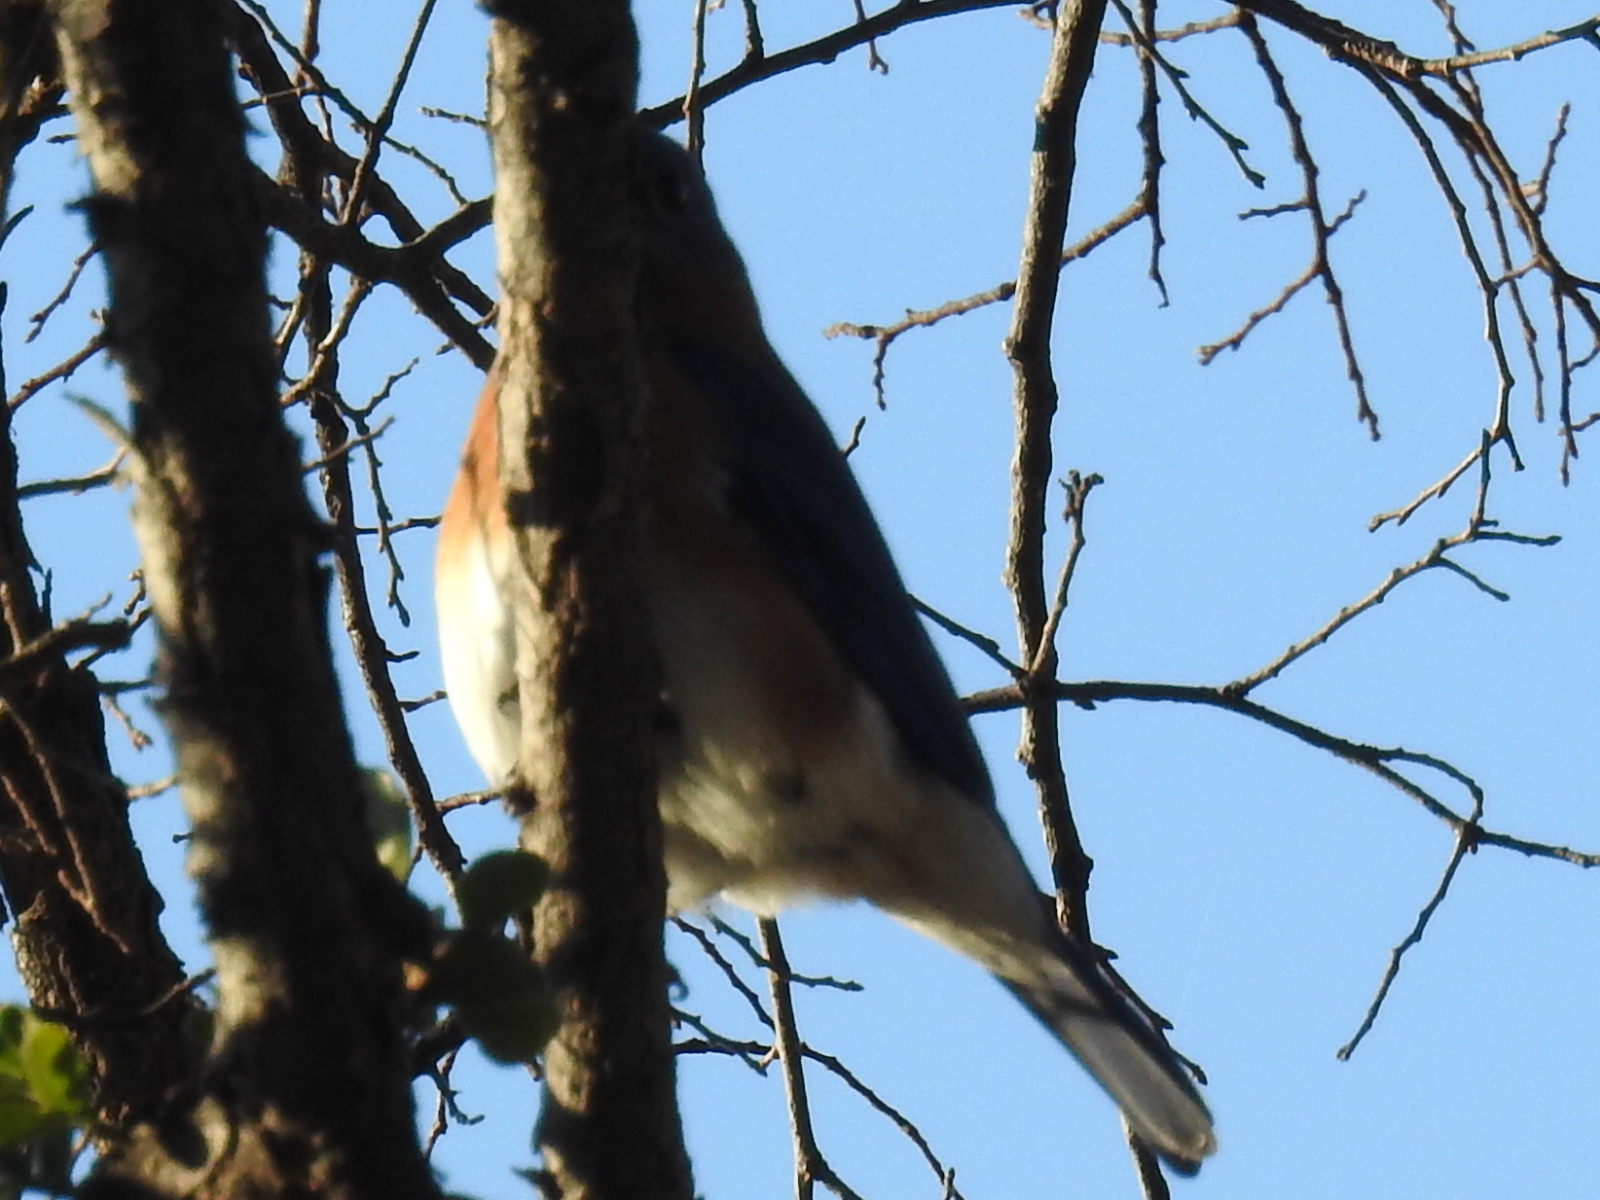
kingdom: Animalia
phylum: Chordata
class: Aves
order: Passeriformes
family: Turdidae
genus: Sialia
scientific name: Sialia sialis
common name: Eastern bluebird
